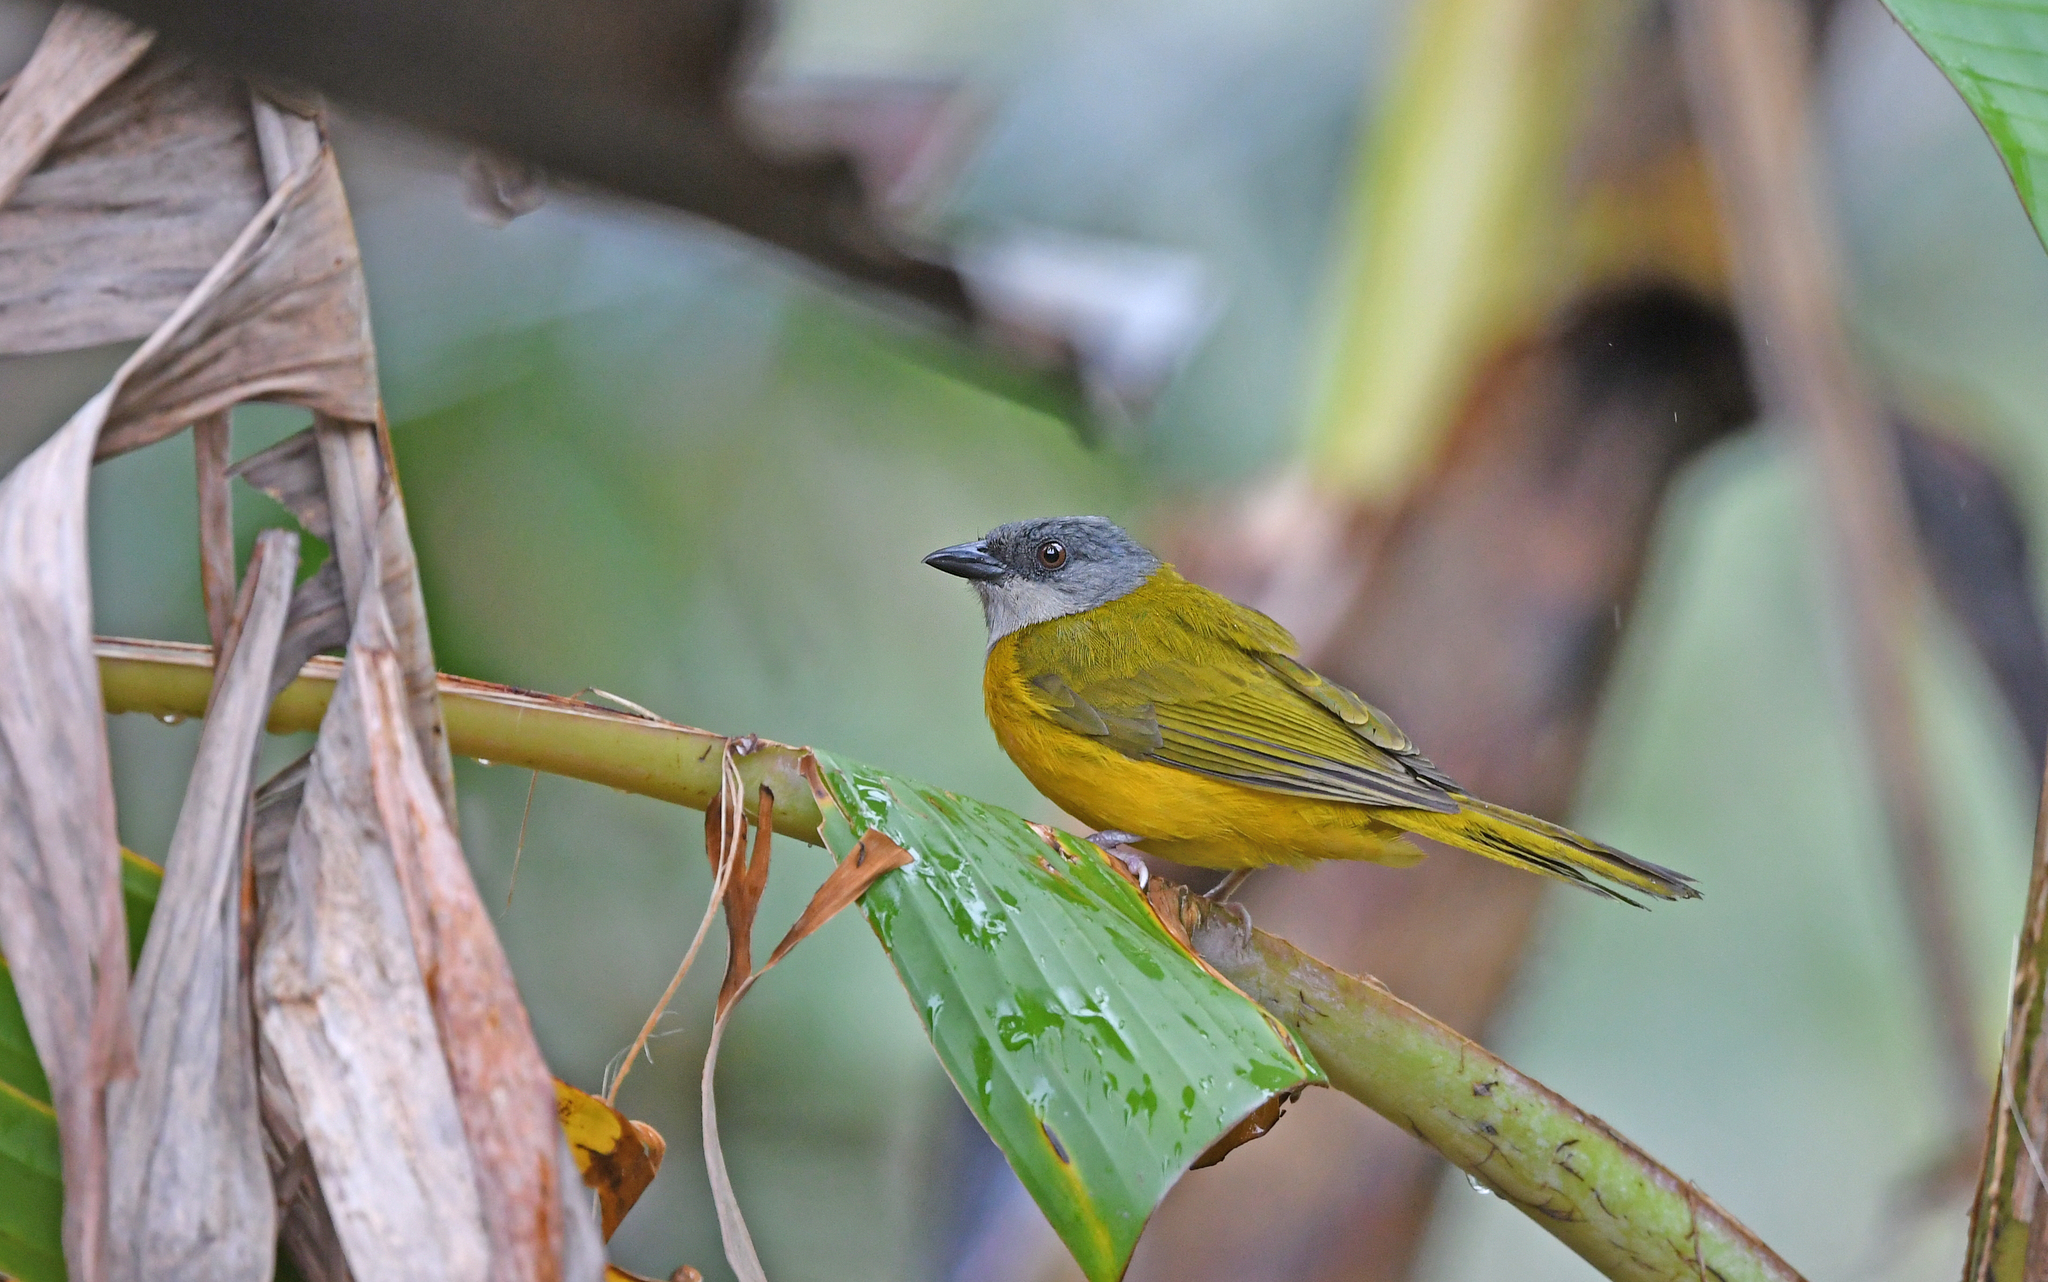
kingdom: Animalia
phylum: Chordata
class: Aves
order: Passeriformes
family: Thraupidae
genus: Eucometis
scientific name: Eucometis penicillata
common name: Grey-headed tanager
